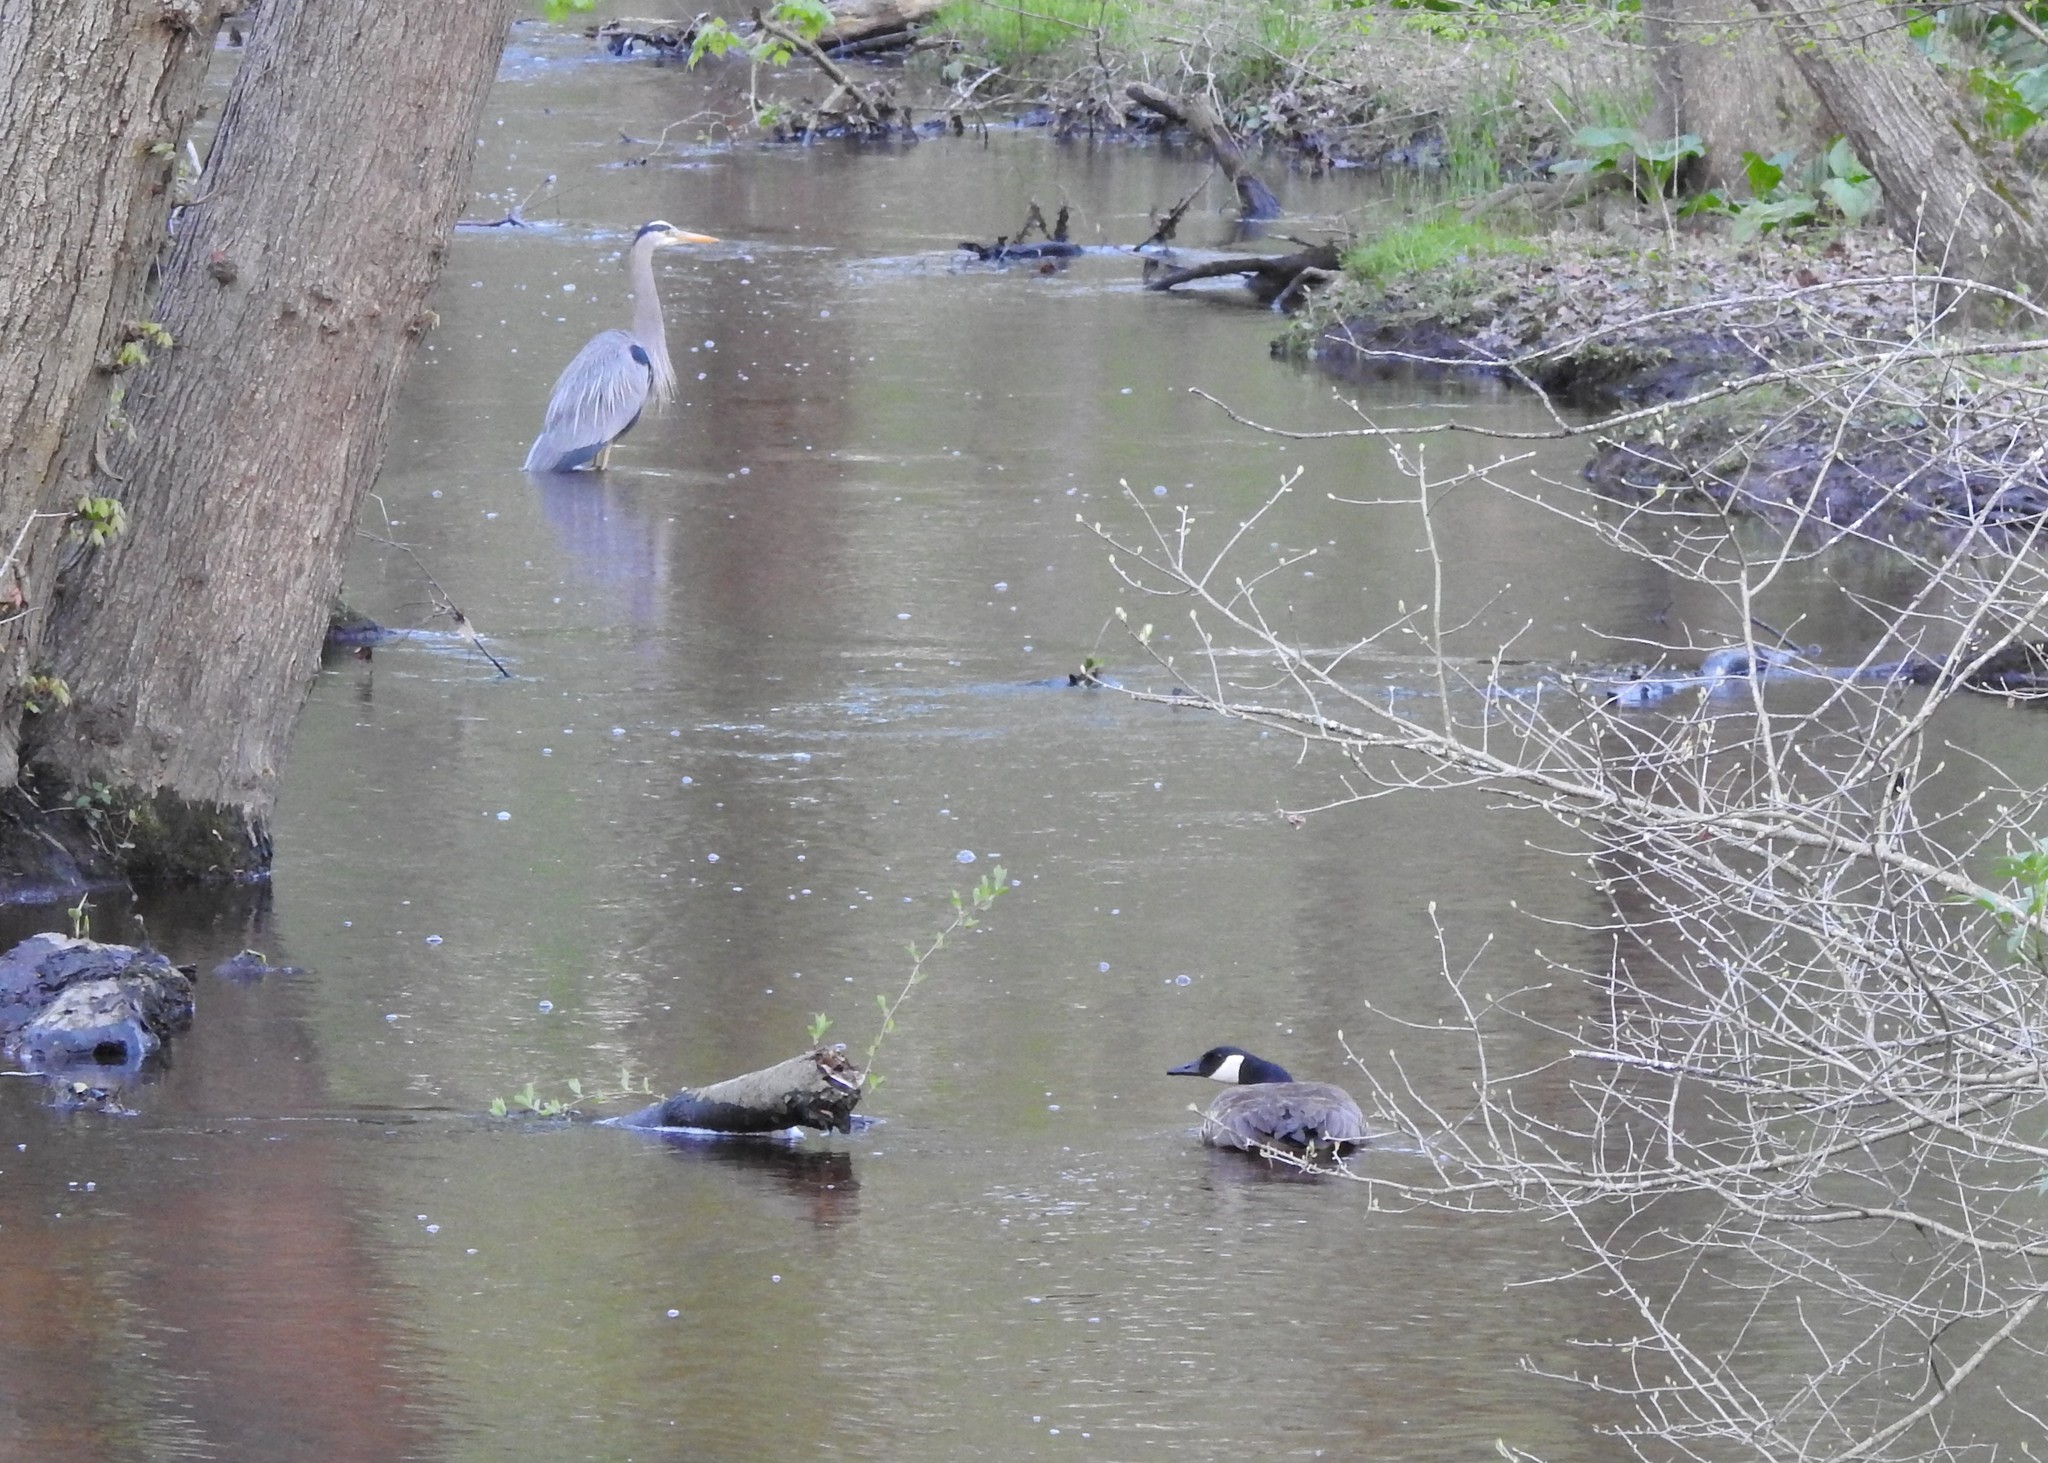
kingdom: Animalia
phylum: Chordata
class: Aves
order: Pelecaniformes
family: Ardeidae
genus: Ardea
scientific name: Ardea herodias
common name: Great blue heron
